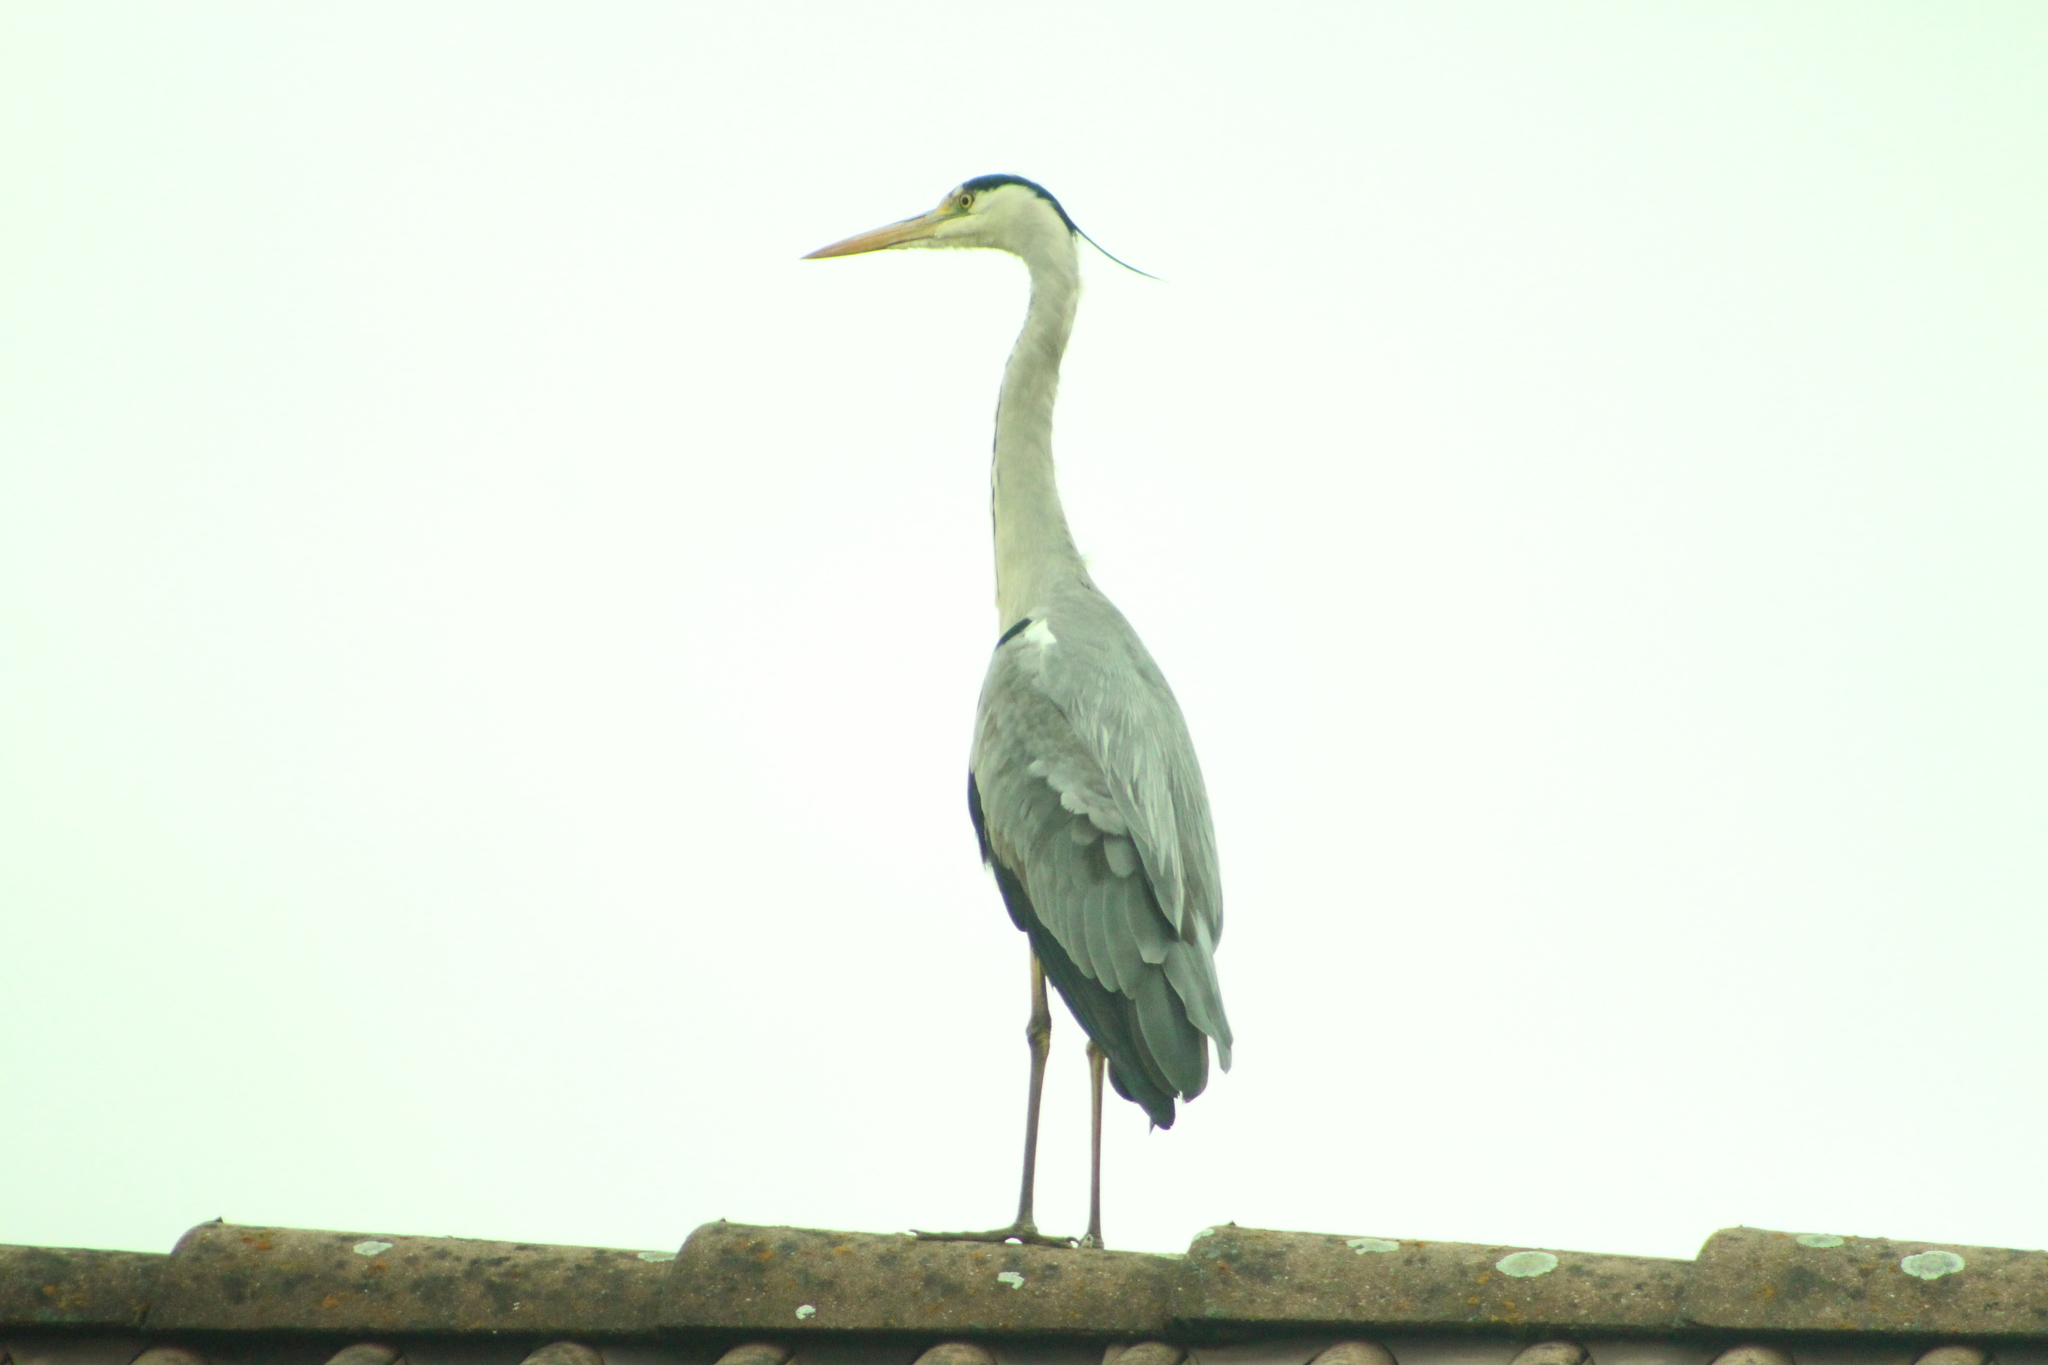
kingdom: Animalia
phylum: Chordata
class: Aves
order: Pelecaniformes
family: Ardeidae
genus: Ardea
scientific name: Ardea cinerea
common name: Grey heron
